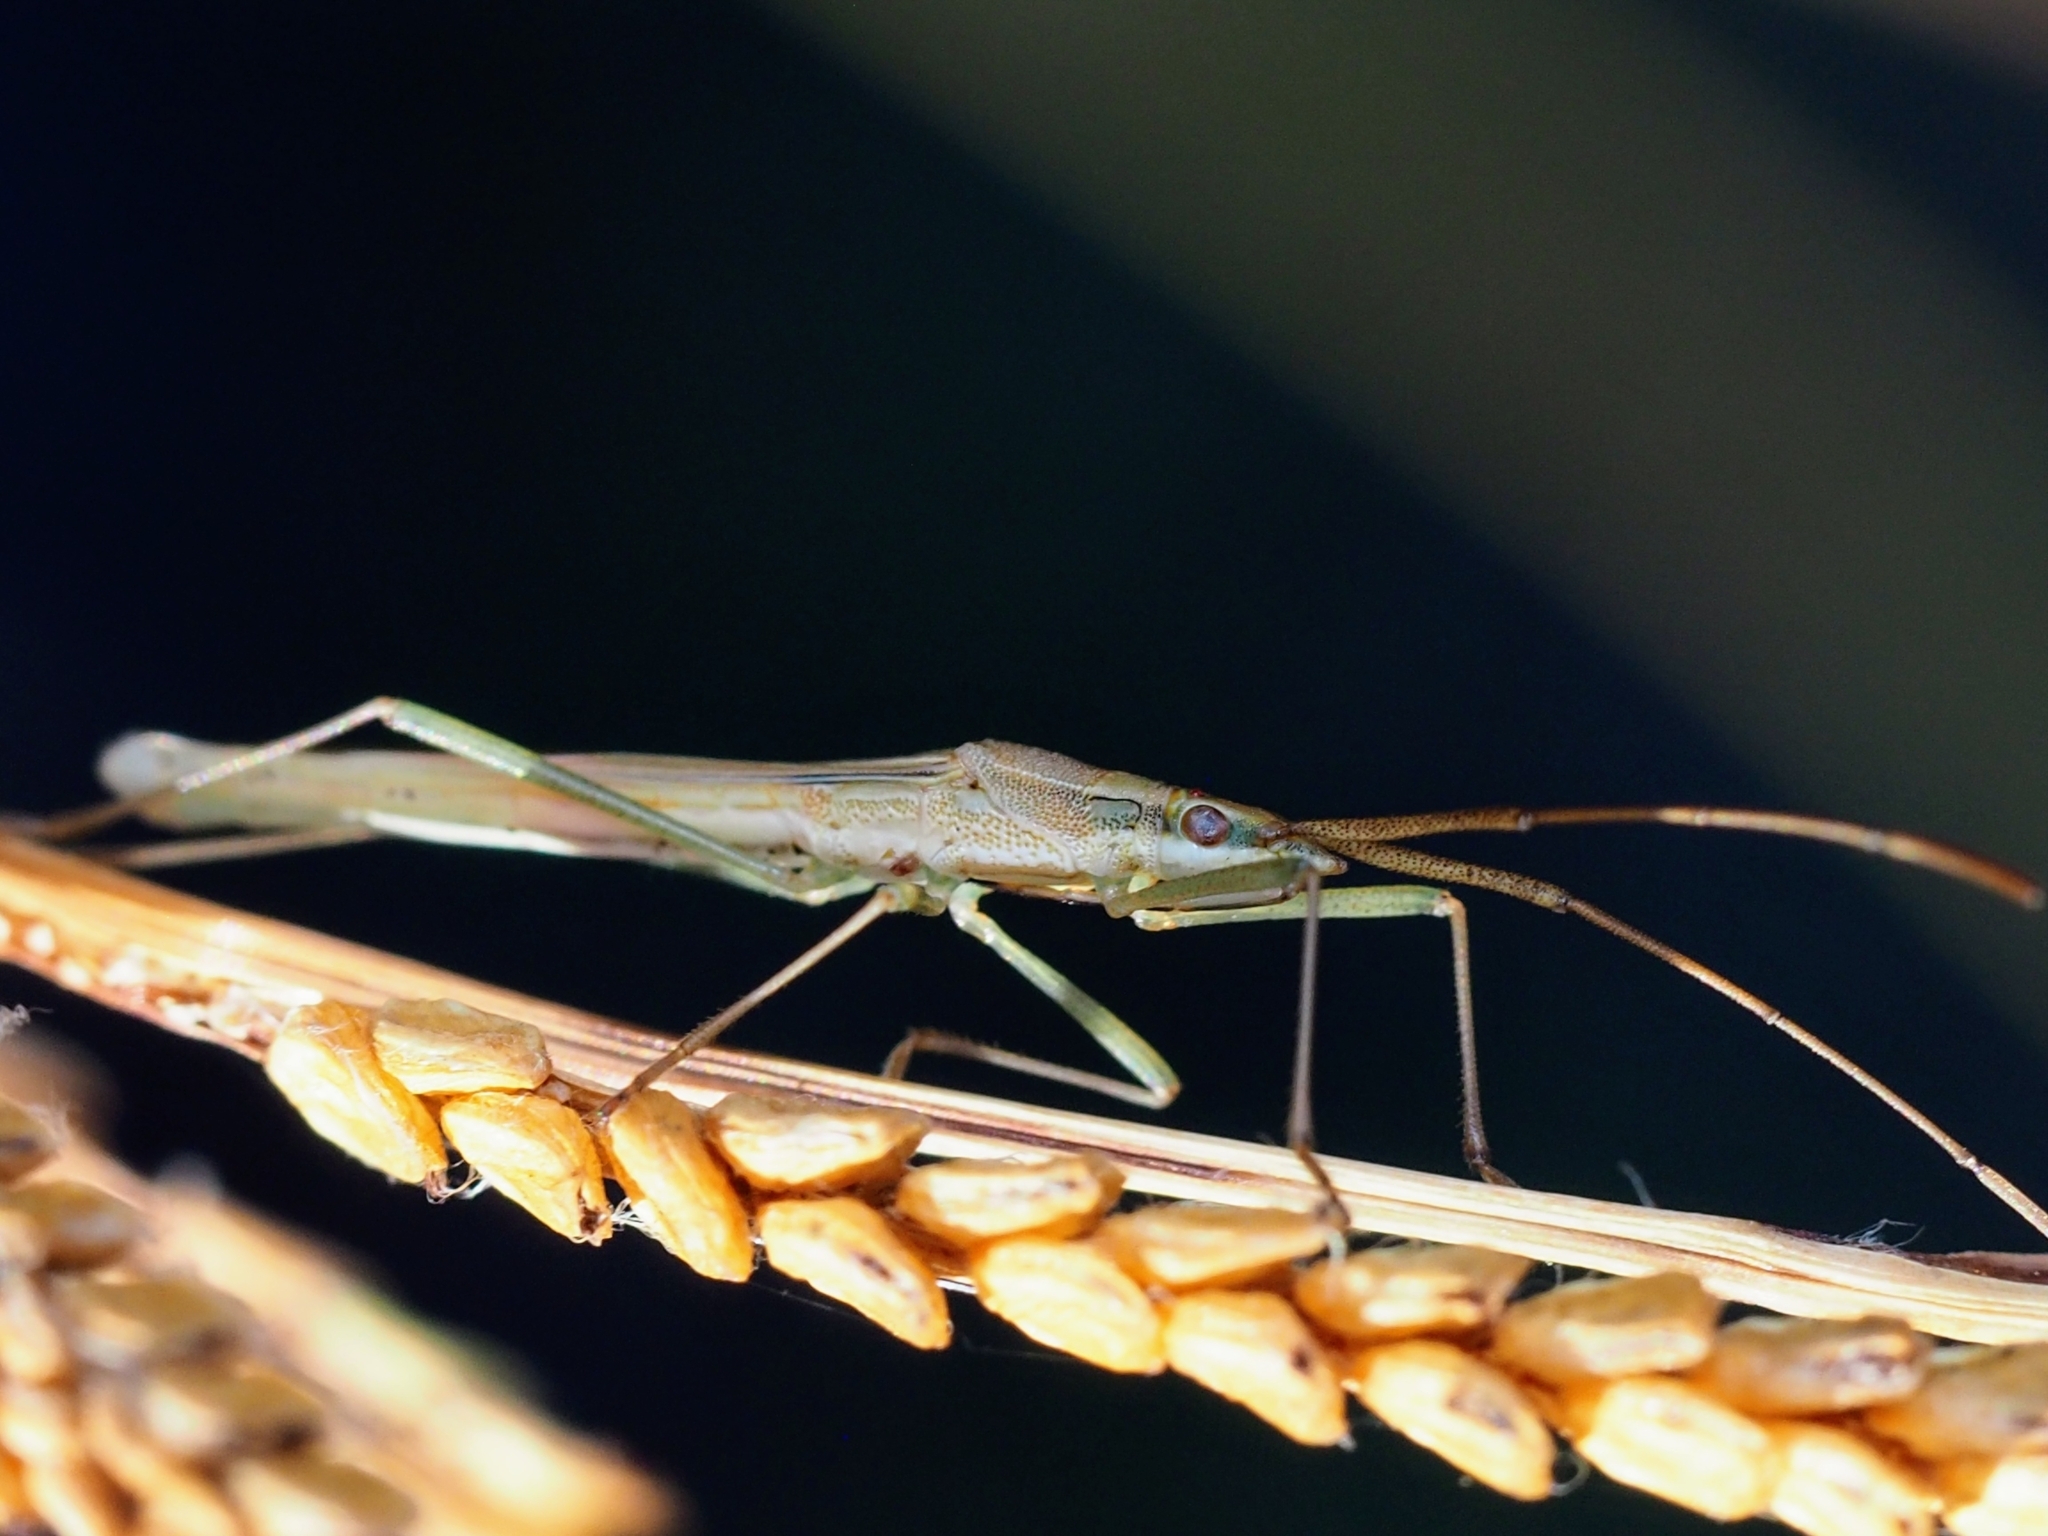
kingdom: Animalia
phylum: Arthropoda
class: Insecta
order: Hemiptera
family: Alydidae
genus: Mutusca
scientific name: Mutusca brevicornis
